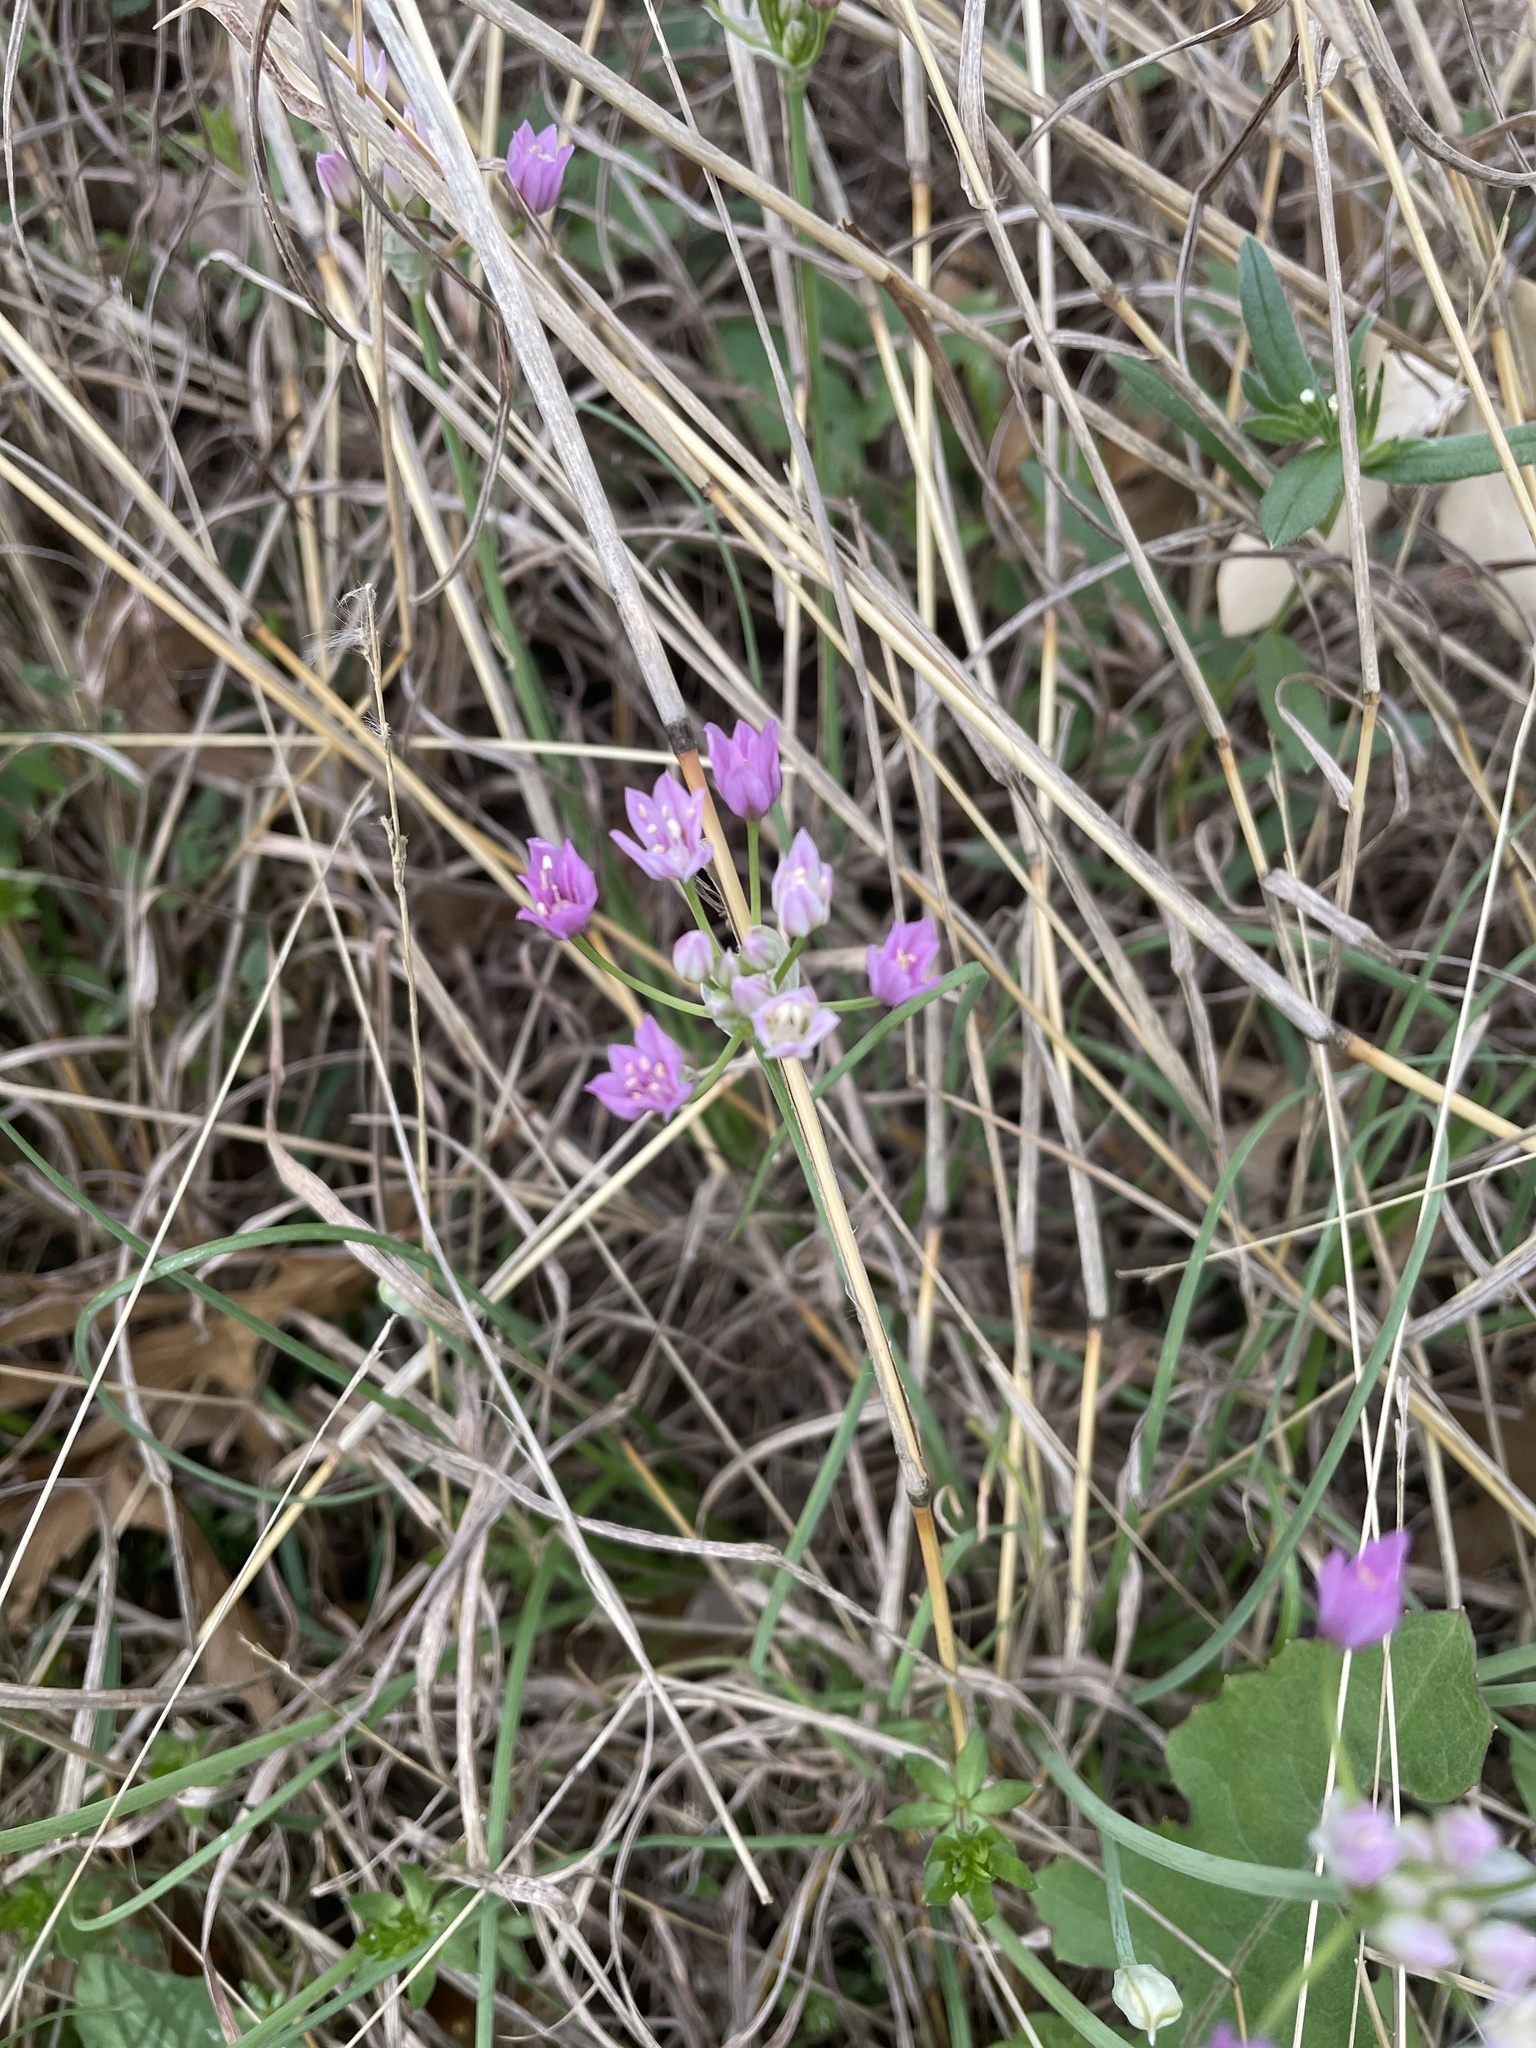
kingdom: Plantae
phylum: Tracheophyta
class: Liliopsida
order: Asparagales
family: Amaryllidaceae
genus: Allium
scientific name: Allium drummondii
